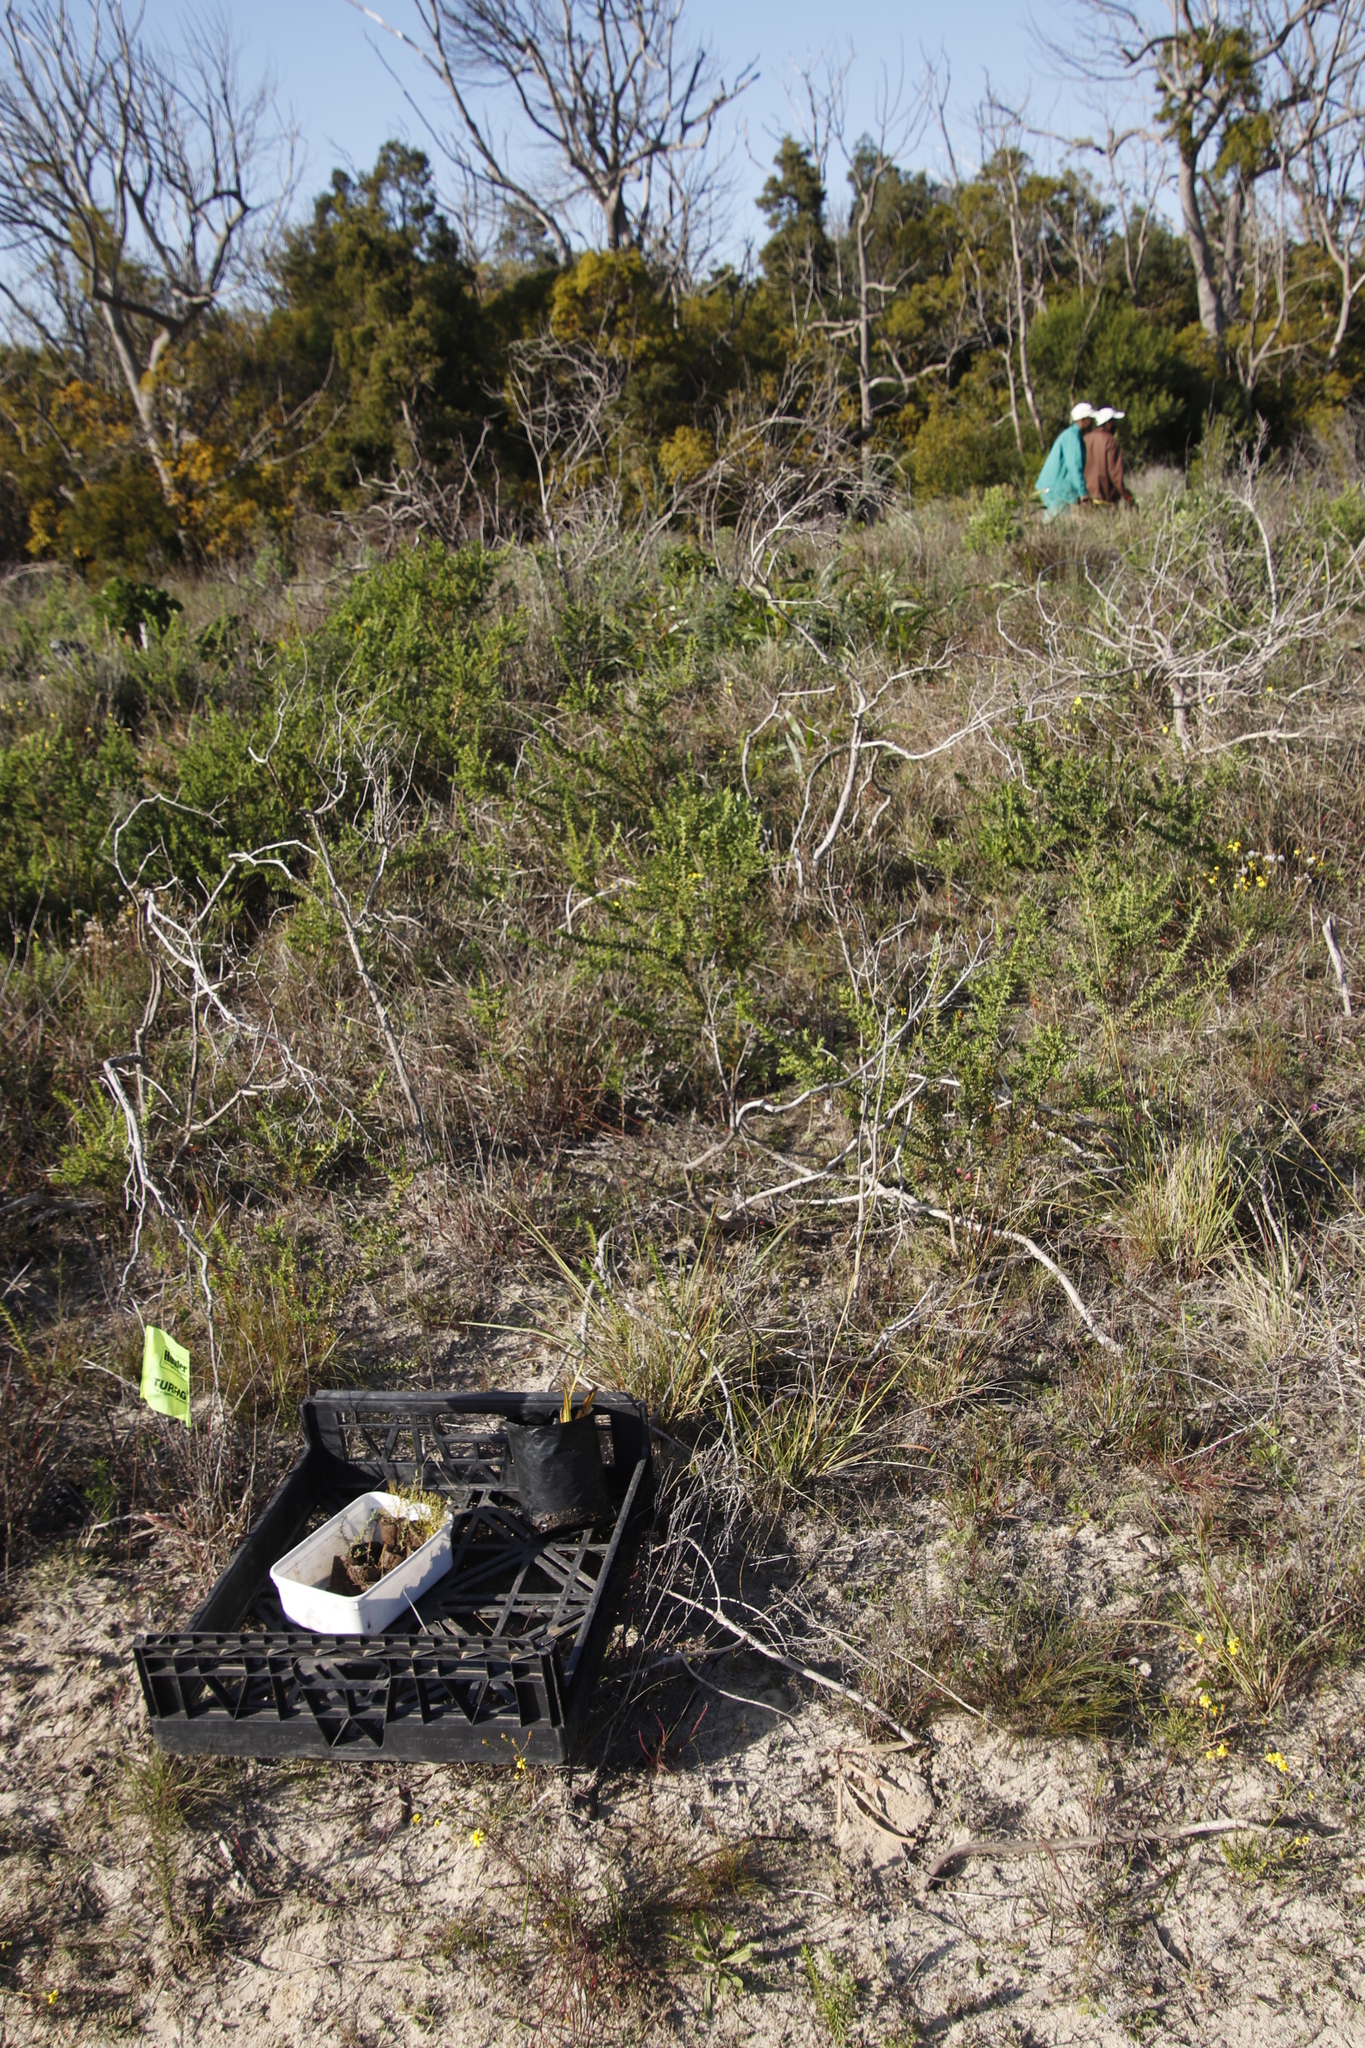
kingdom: Plantae
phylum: Tracheophyta
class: Magnoliopsida
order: Fabales
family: Fabaceae
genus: Acacia
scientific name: Acacia saligna
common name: Orange wattle
